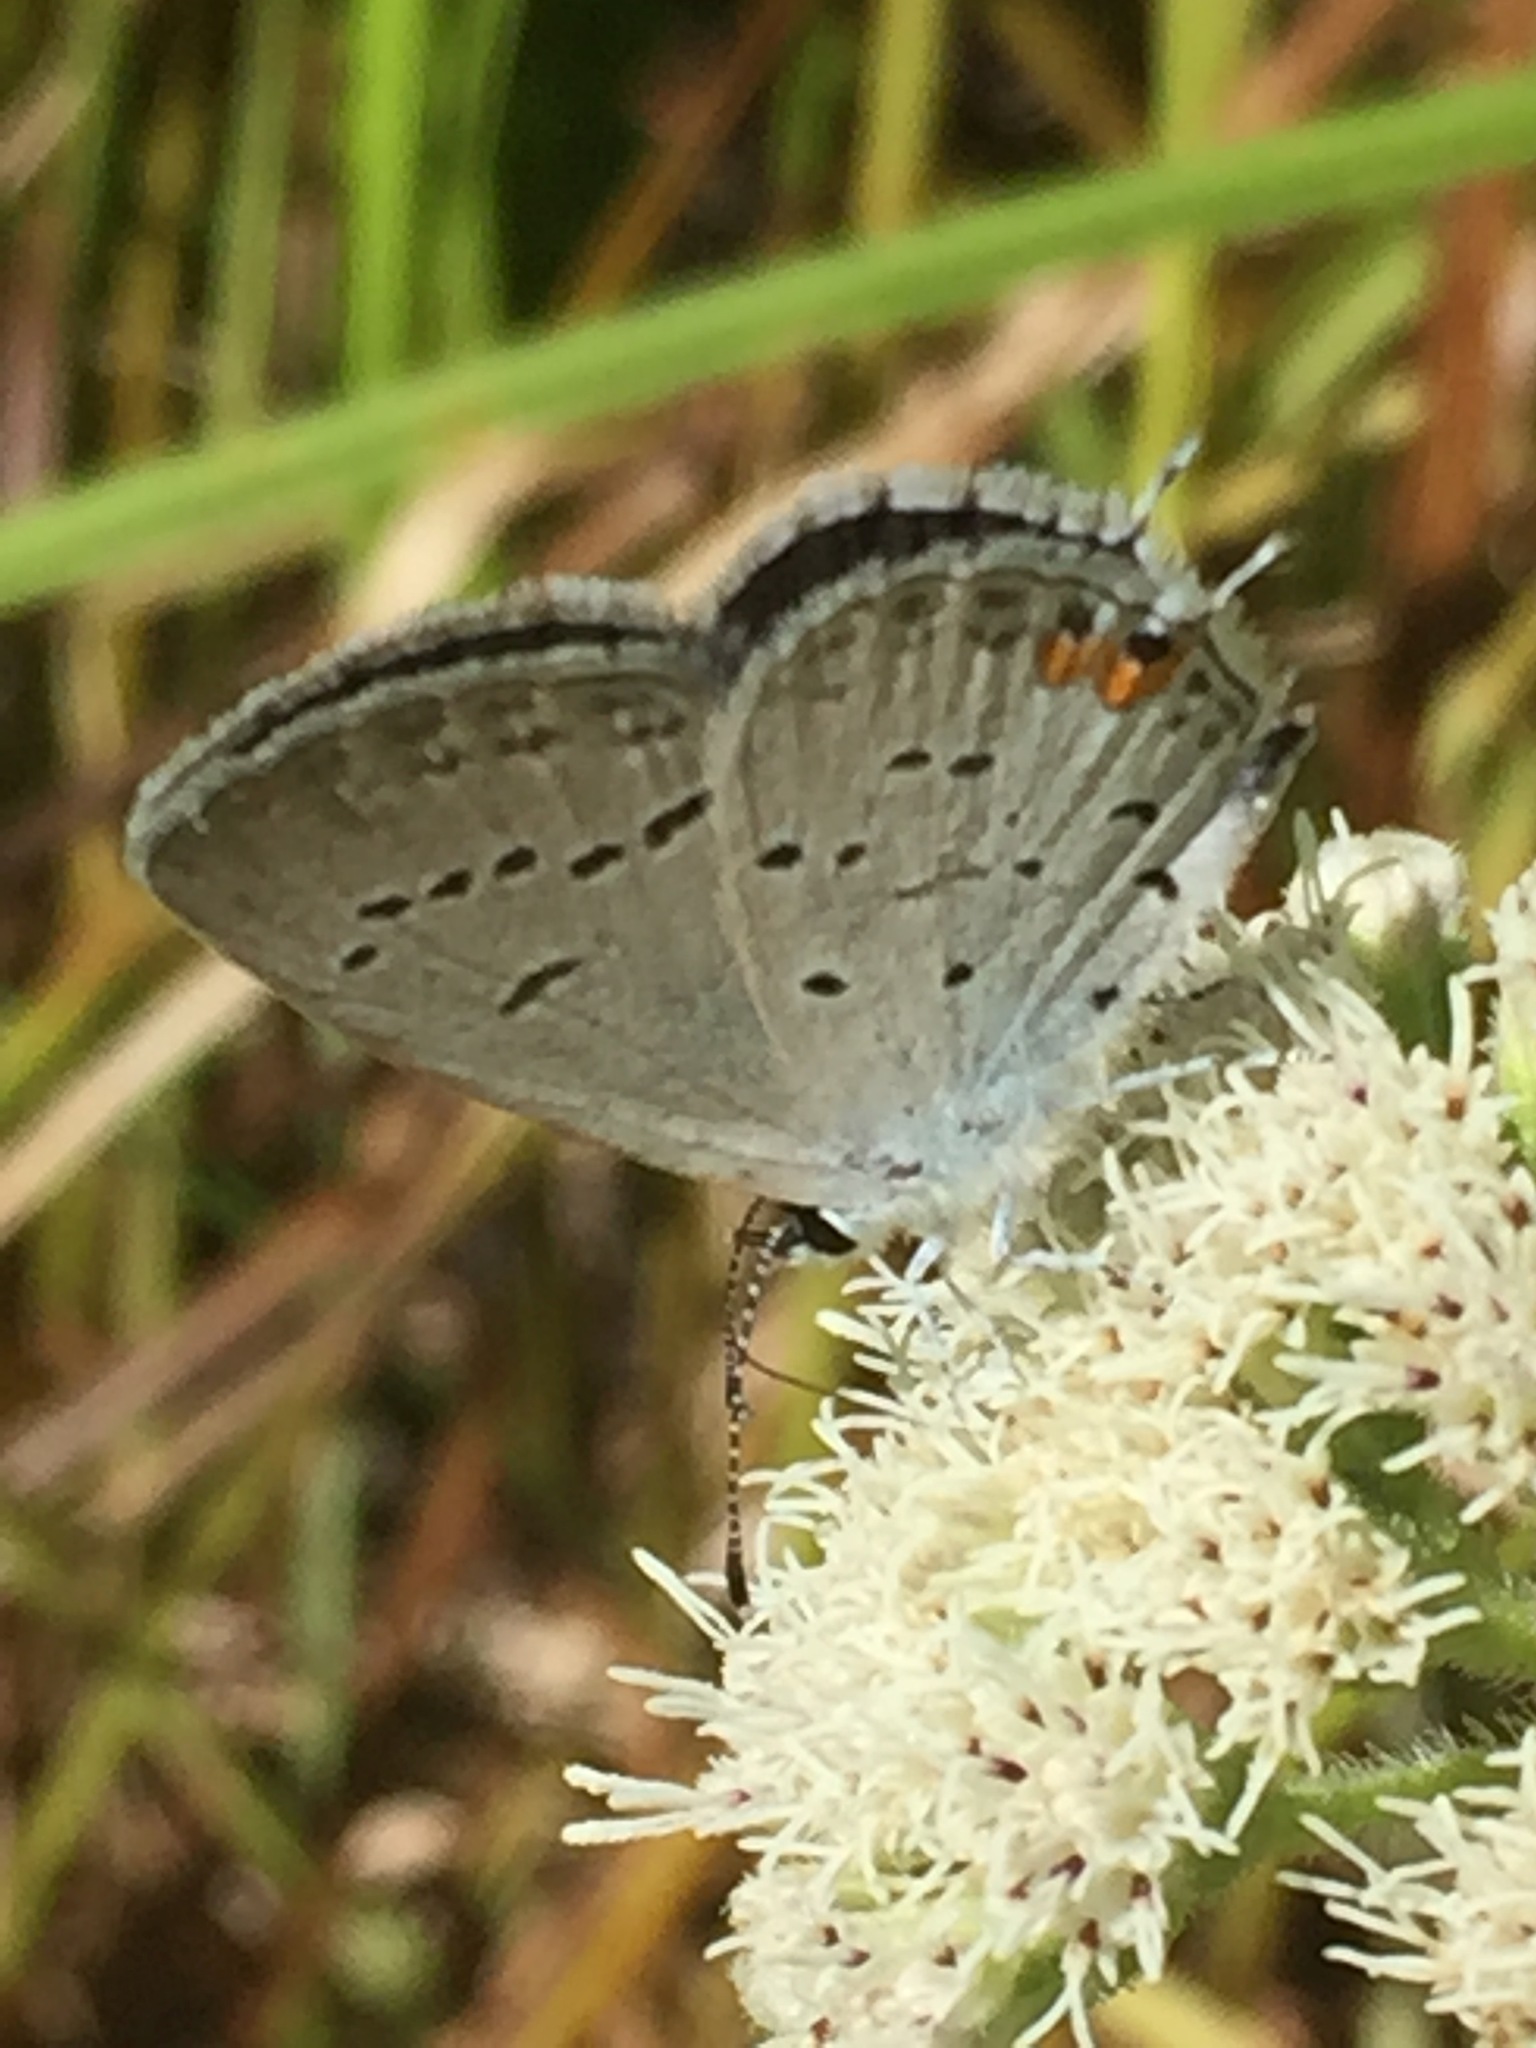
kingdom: Animalia
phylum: Arthropoda
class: Insecta
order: Lepidoptera
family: Lycaenidae
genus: Elkalyce
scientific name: Elkalyce comyntas
